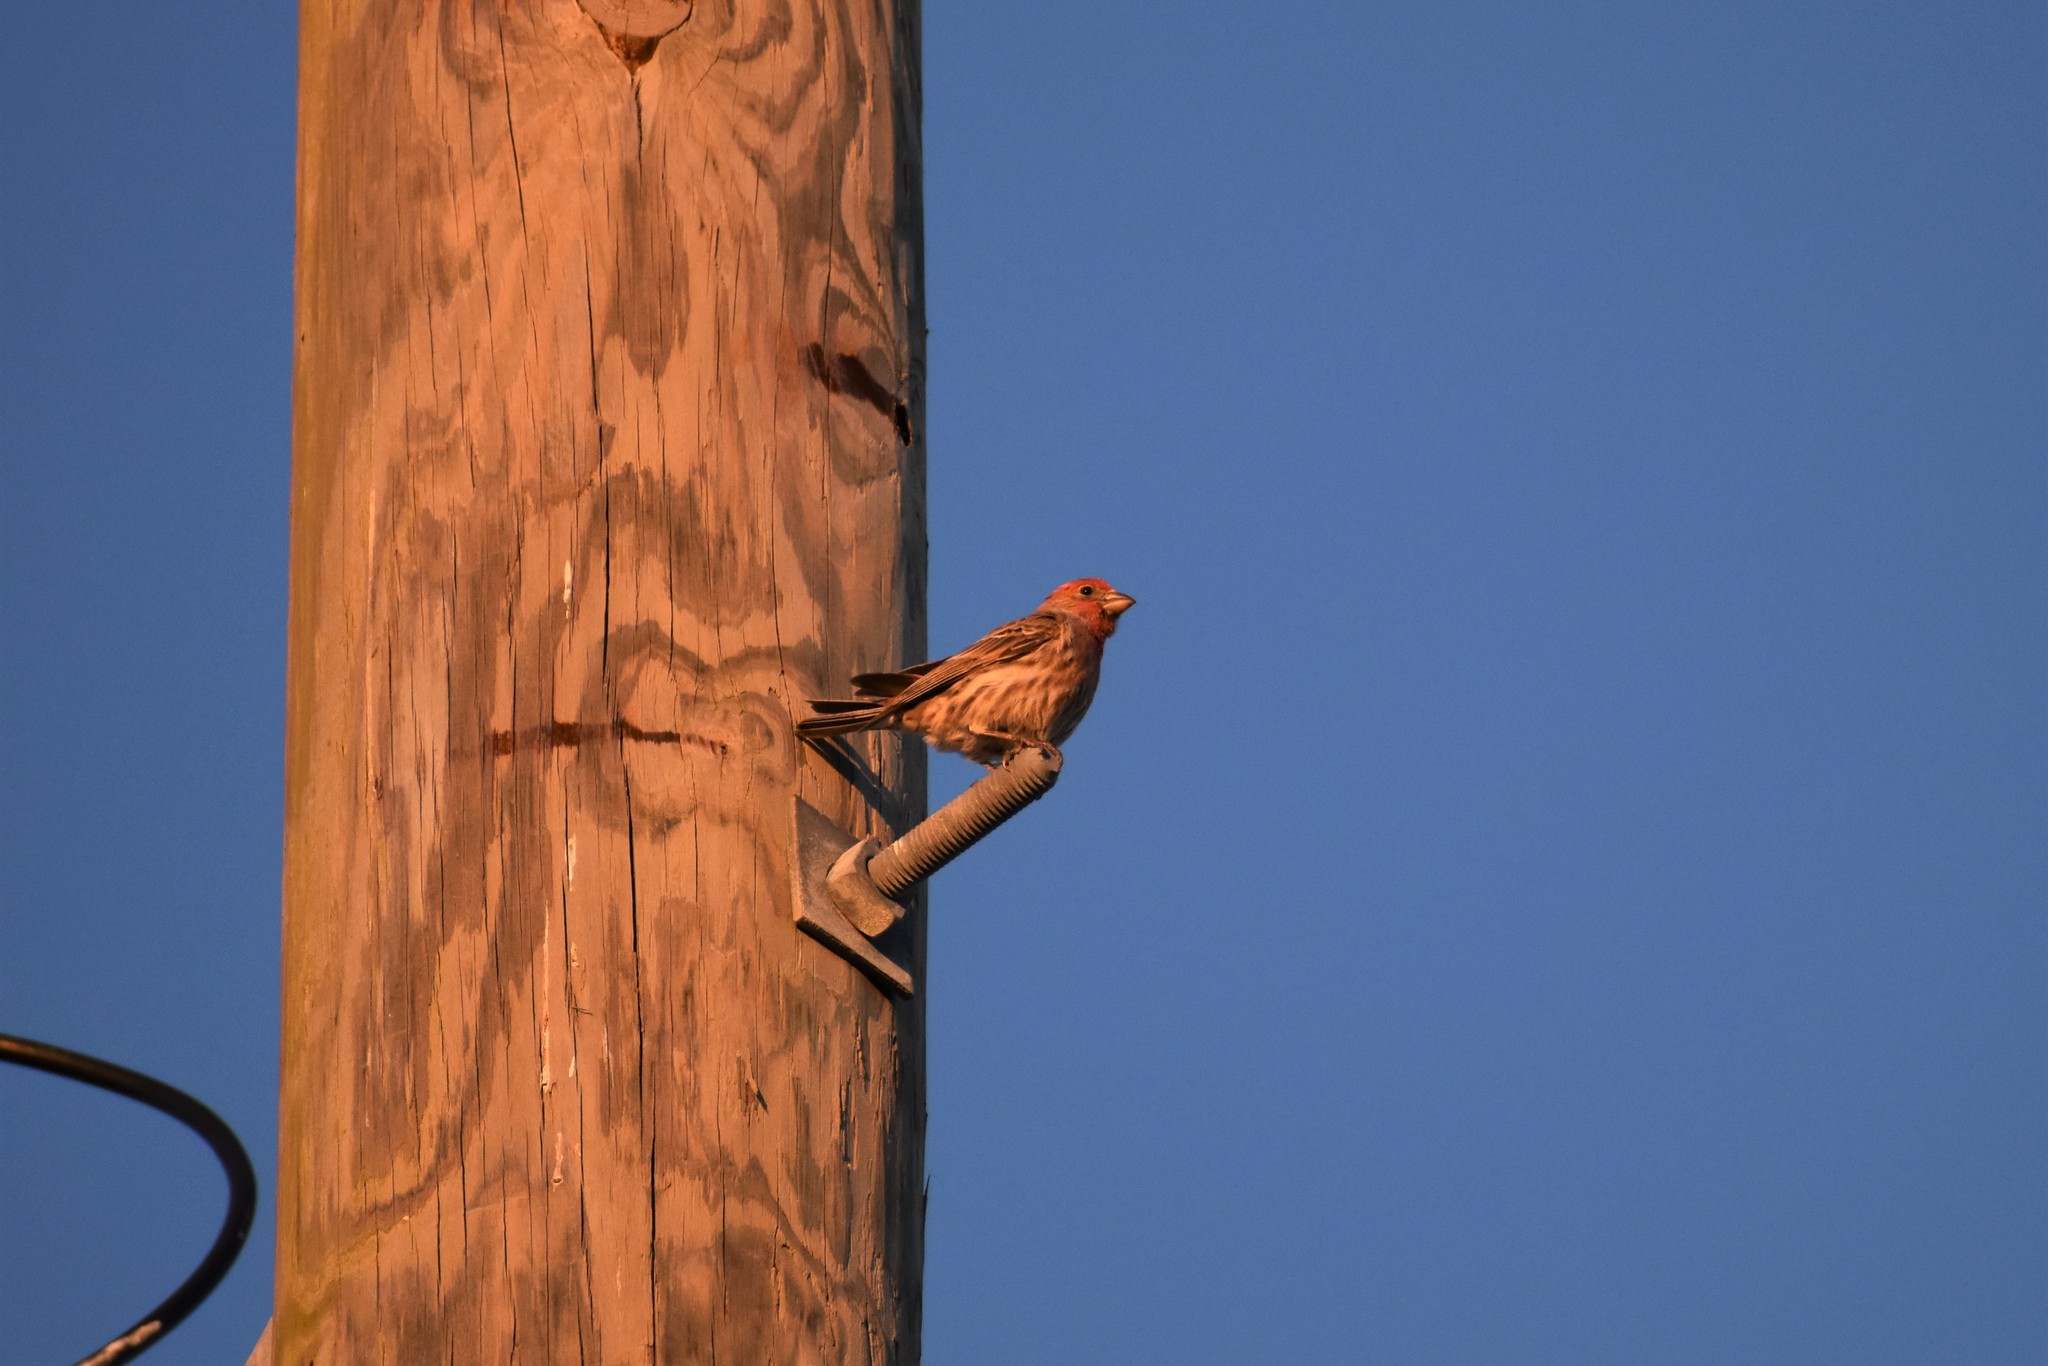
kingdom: Animalia
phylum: Chordata
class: Aves
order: Passeriformes
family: Fringillidae
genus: Haemorhous
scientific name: Haemorhous mexicanus
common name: House finch
